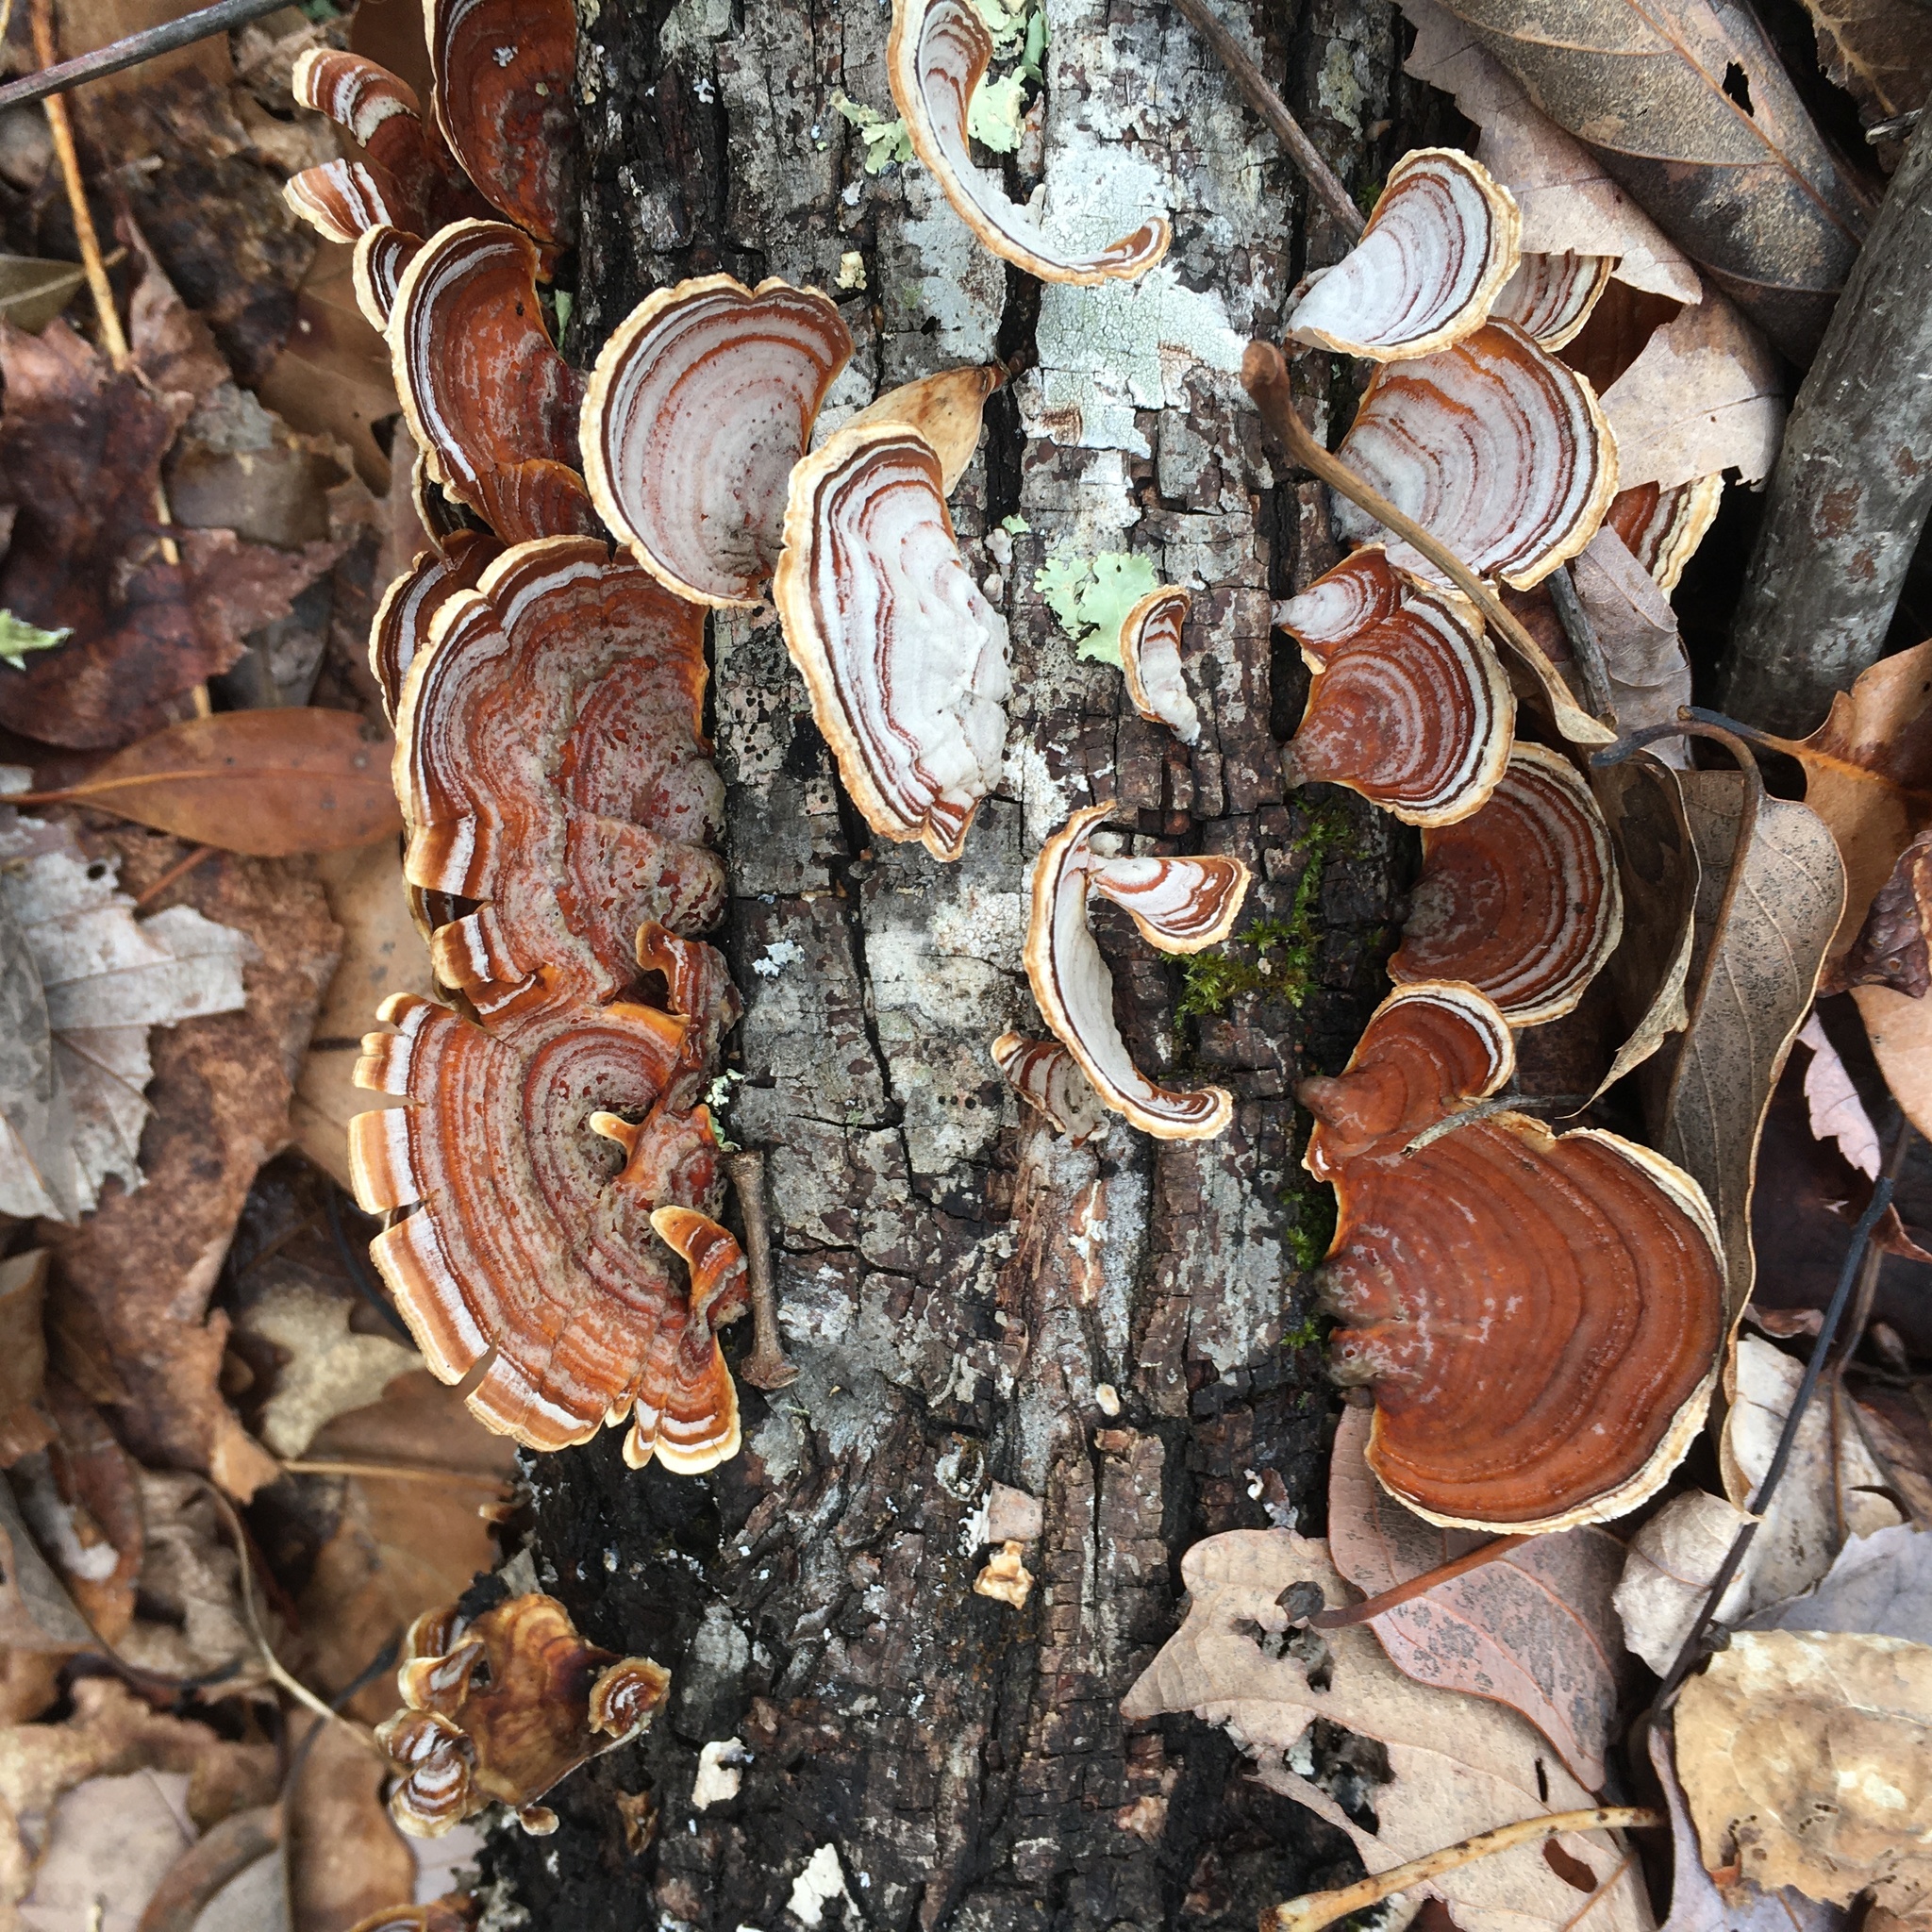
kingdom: Fungi
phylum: Basidiomycota
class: Agaricomycetes
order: Russulales
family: Stereaceae
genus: Stereum
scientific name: Stereum lobatum
